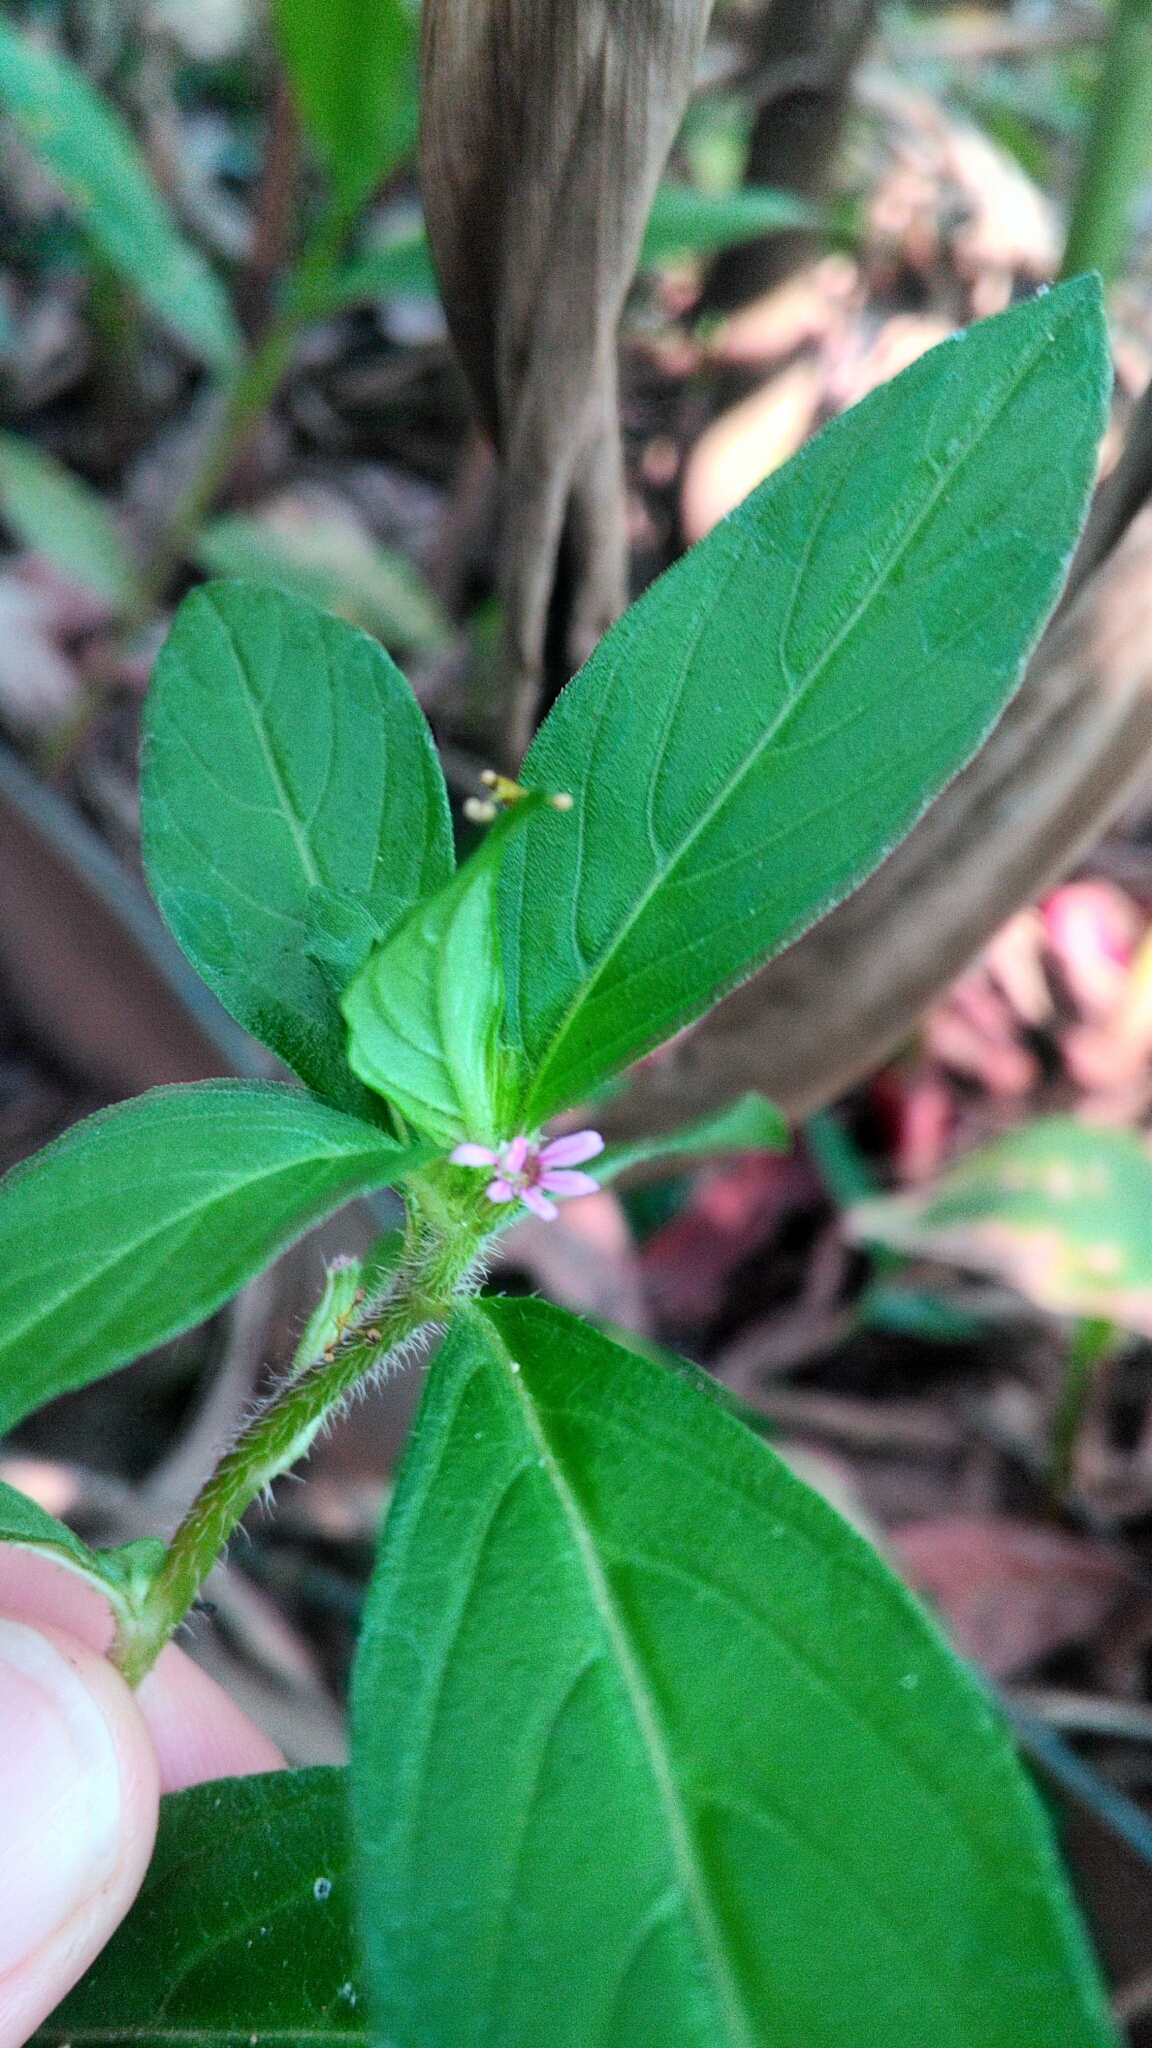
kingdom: Plantae
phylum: Tracheophyta
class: Magnoliopsida
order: Myrtales
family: Lythraceae
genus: Cuphea
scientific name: Cuphea carthagenensis
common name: Colombian waxweed
